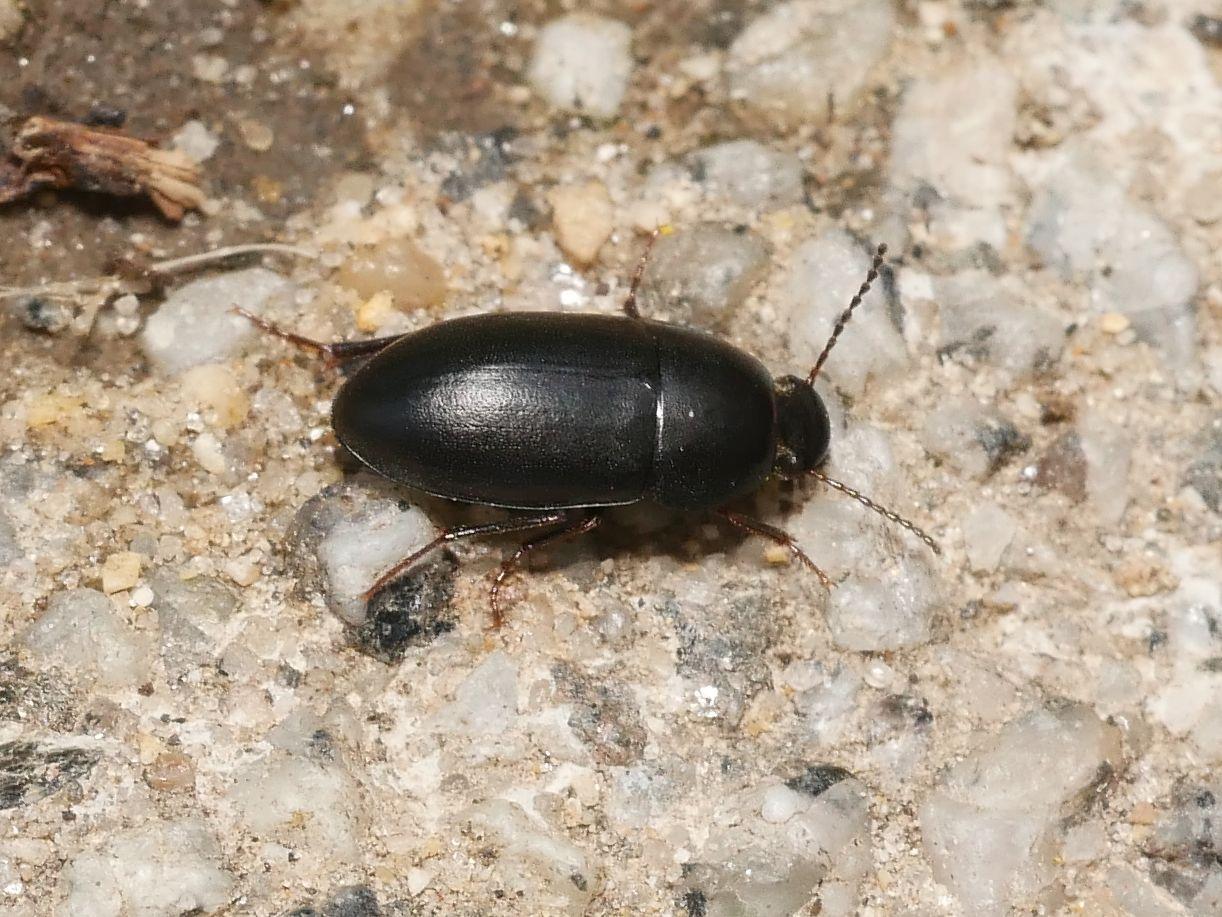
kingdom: Animalia
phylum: Arthropoda
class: Insecta
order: Coleoptera
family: Tenebrionidae
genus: Crypticus
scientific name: Crypticus quisquilius
